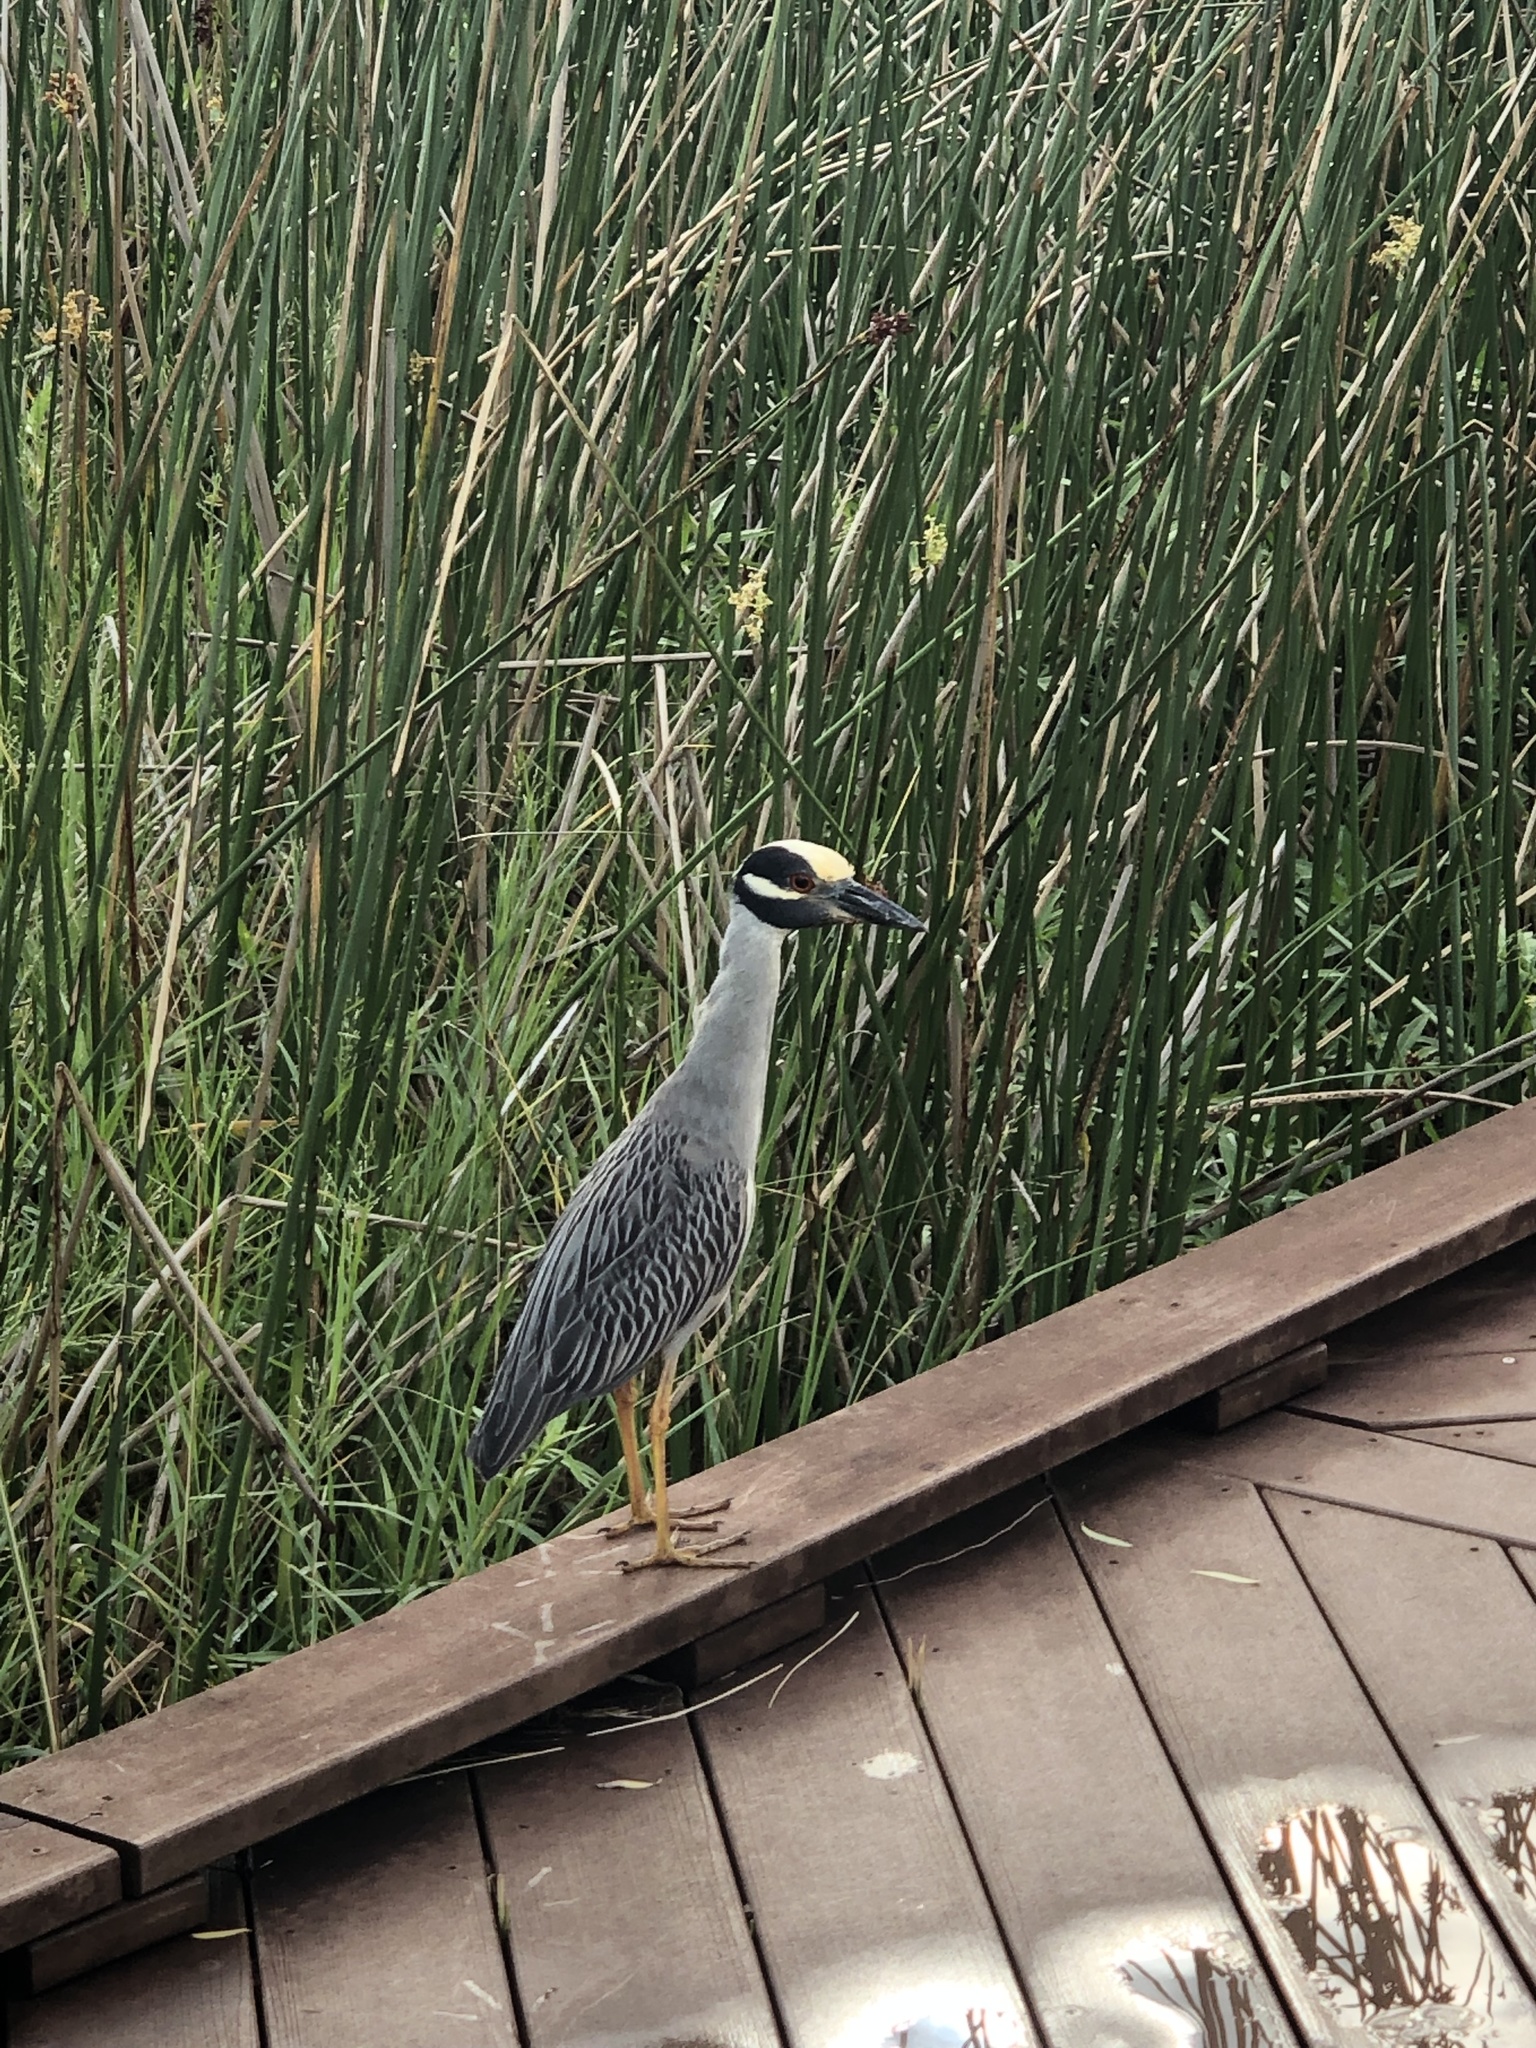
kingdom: Animalia
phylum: Chordata
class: Aves
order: Pelecaniformes
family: Ardeidae
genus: Nyctanassa
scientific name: Nyctanassa violacea
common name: Yellow-crowned night heron
